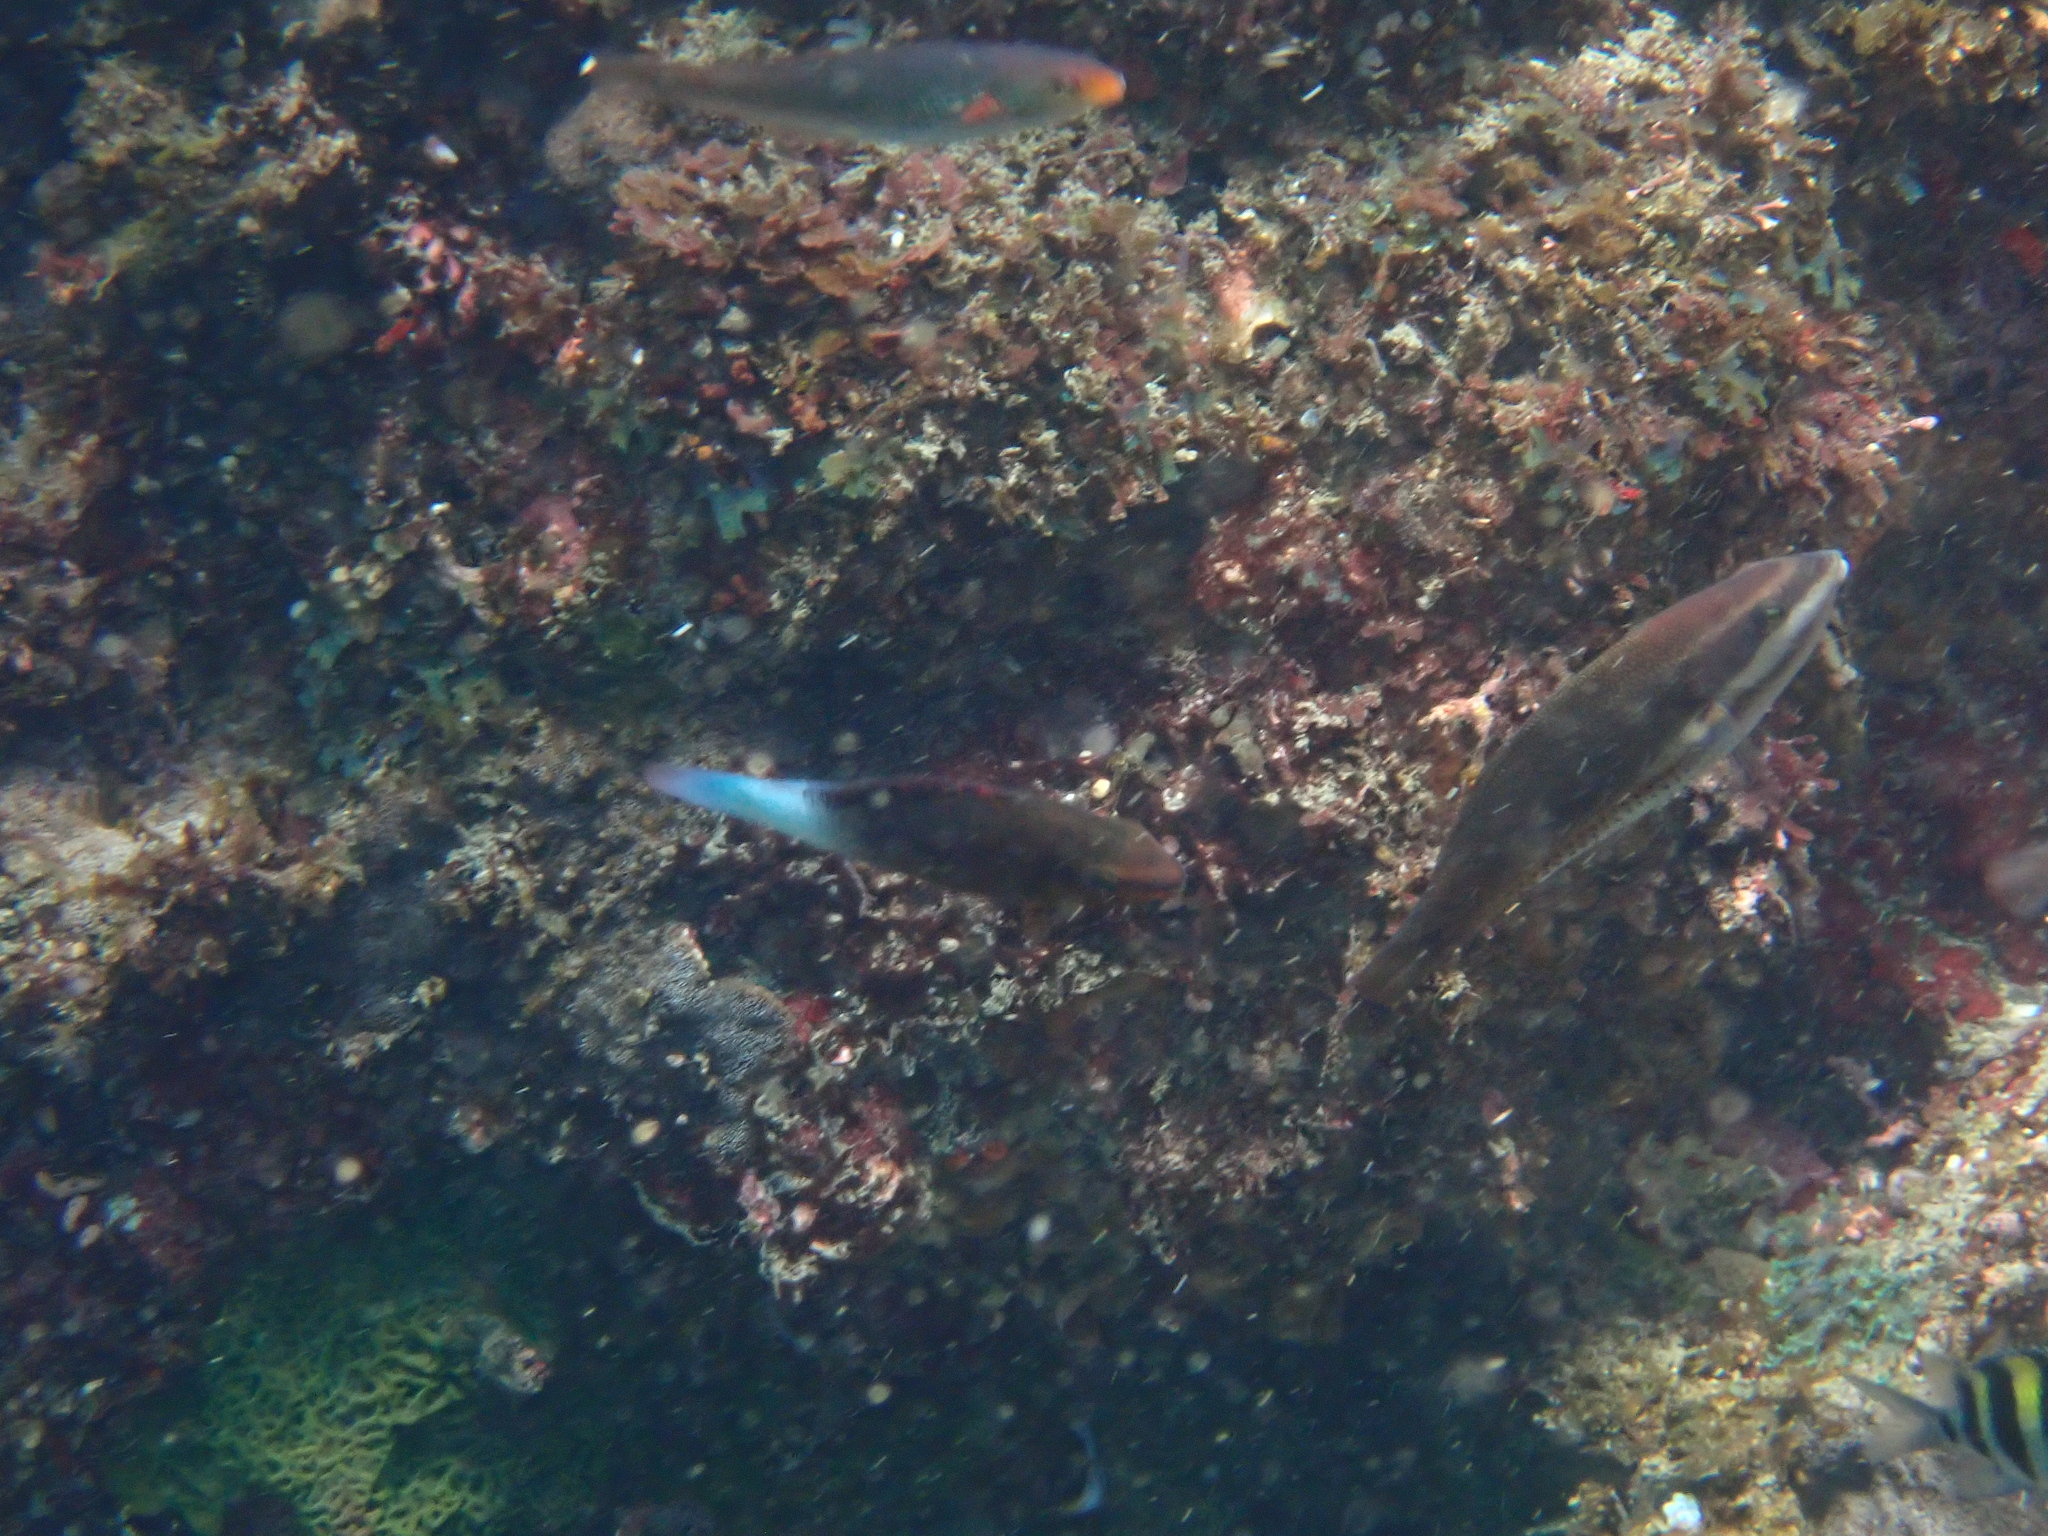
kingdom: Animalia
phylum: Chordata
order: Perciformes
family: Scaridae
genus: Scarus
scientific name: Scarus frenatus
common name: Bridled parrotfish
